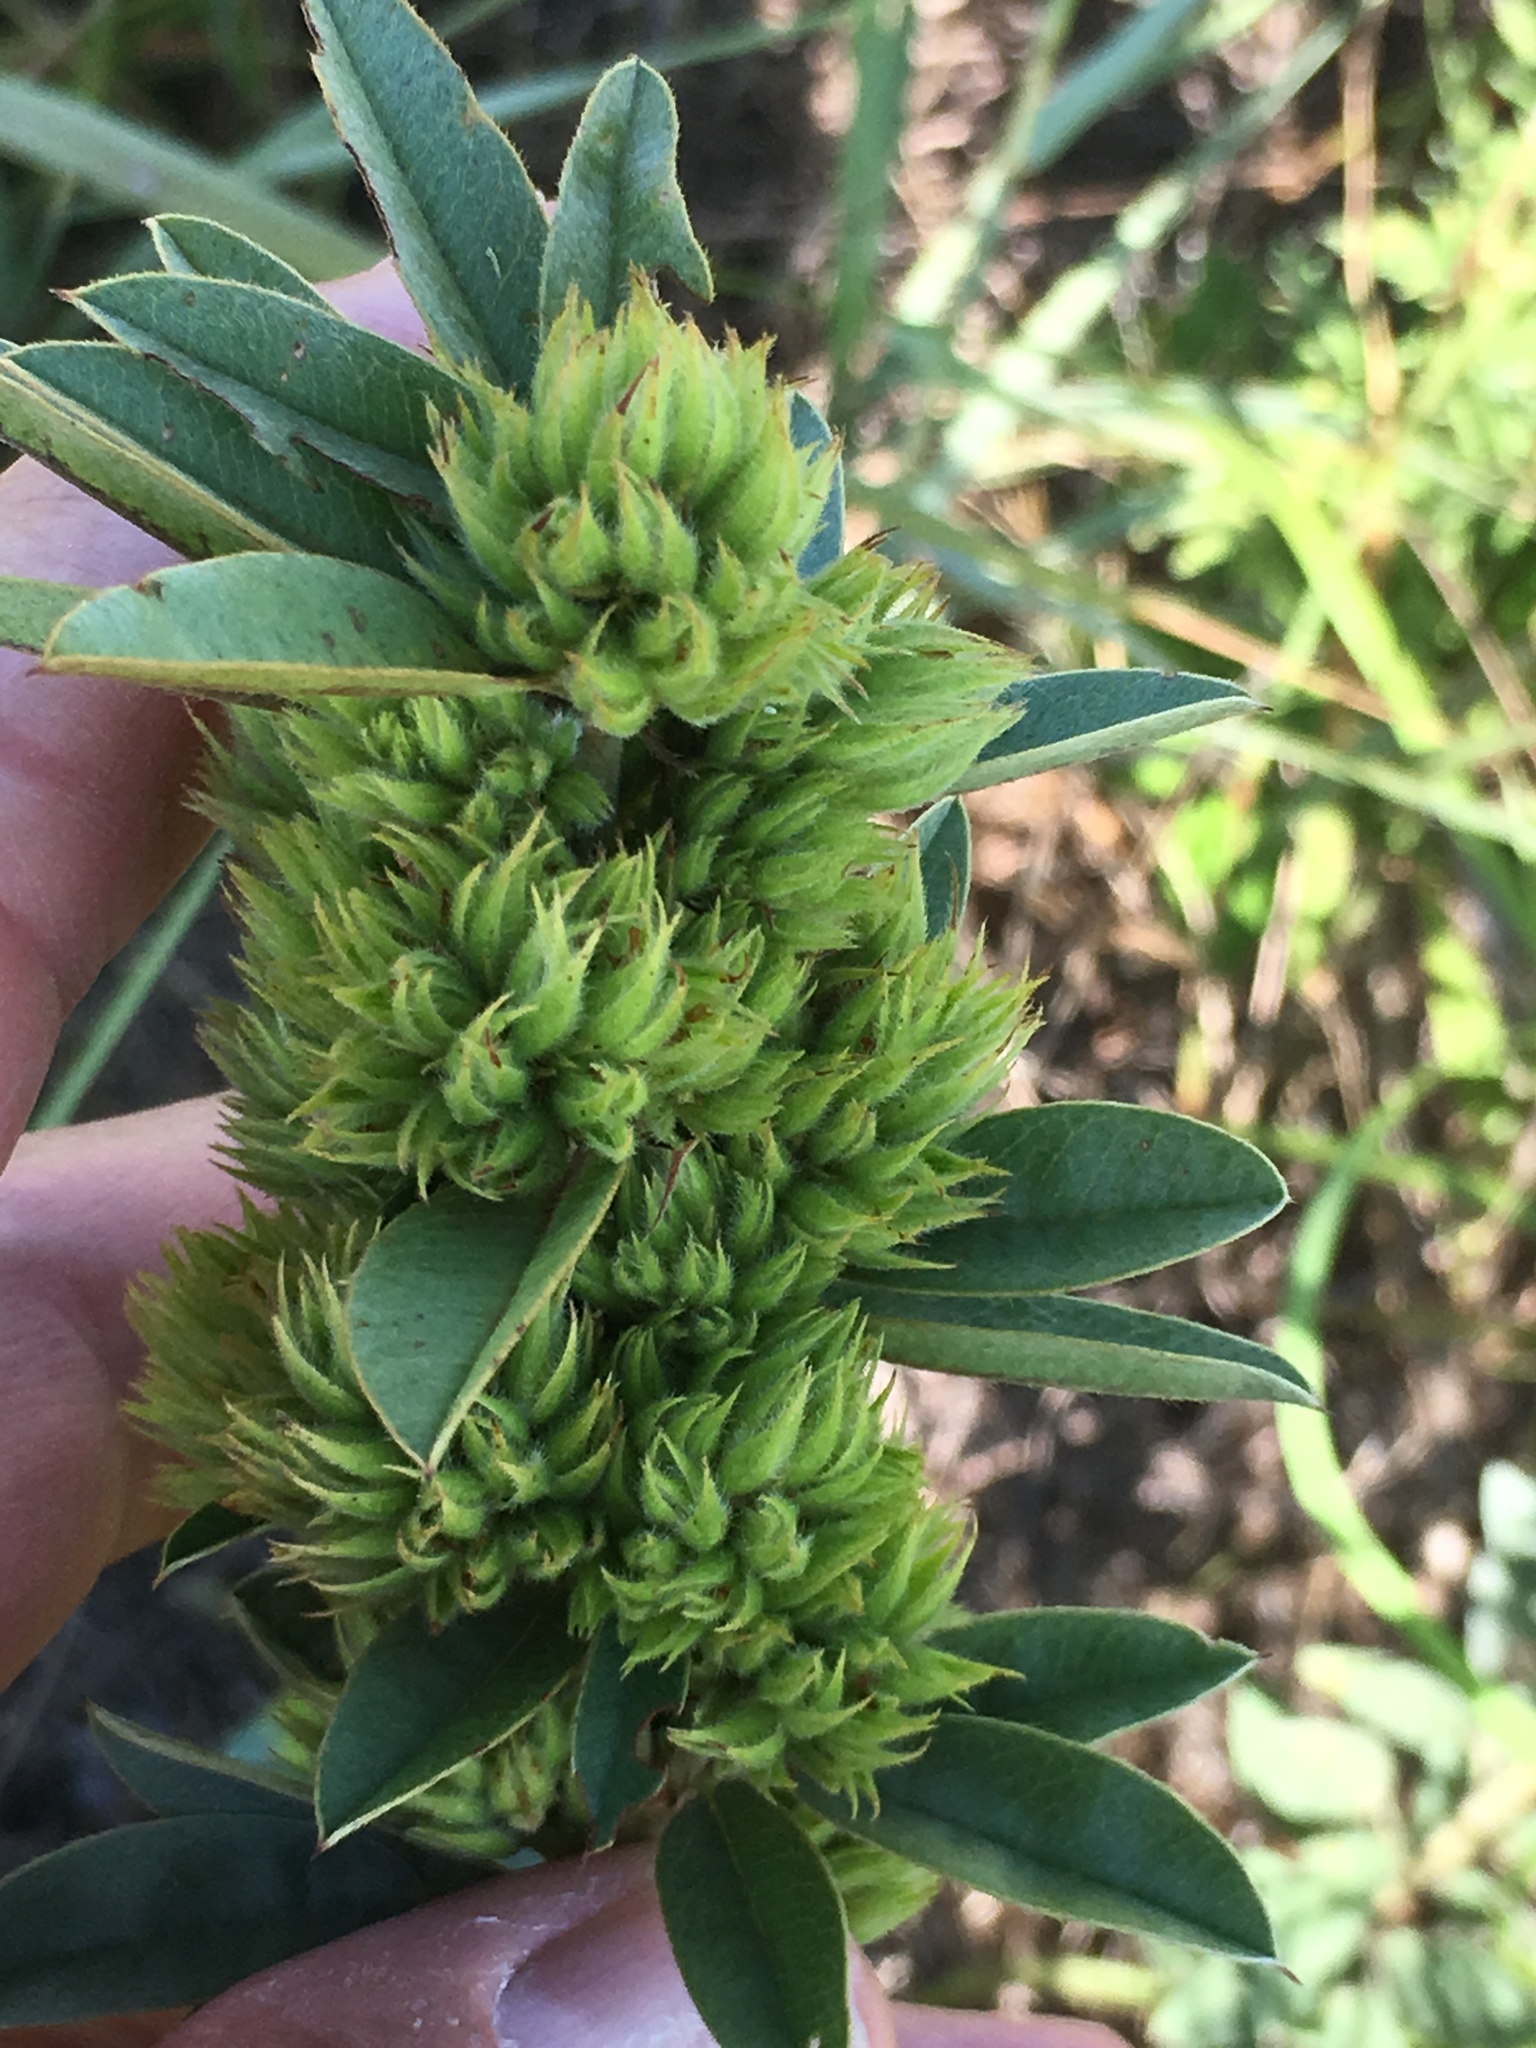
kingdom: Plantae
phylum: Tracheophyta
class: Magnoliopsida
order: Fabales
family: Fabaceae
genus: Lespedeza
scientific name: Lespedeza capitata
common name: Dusty clover
